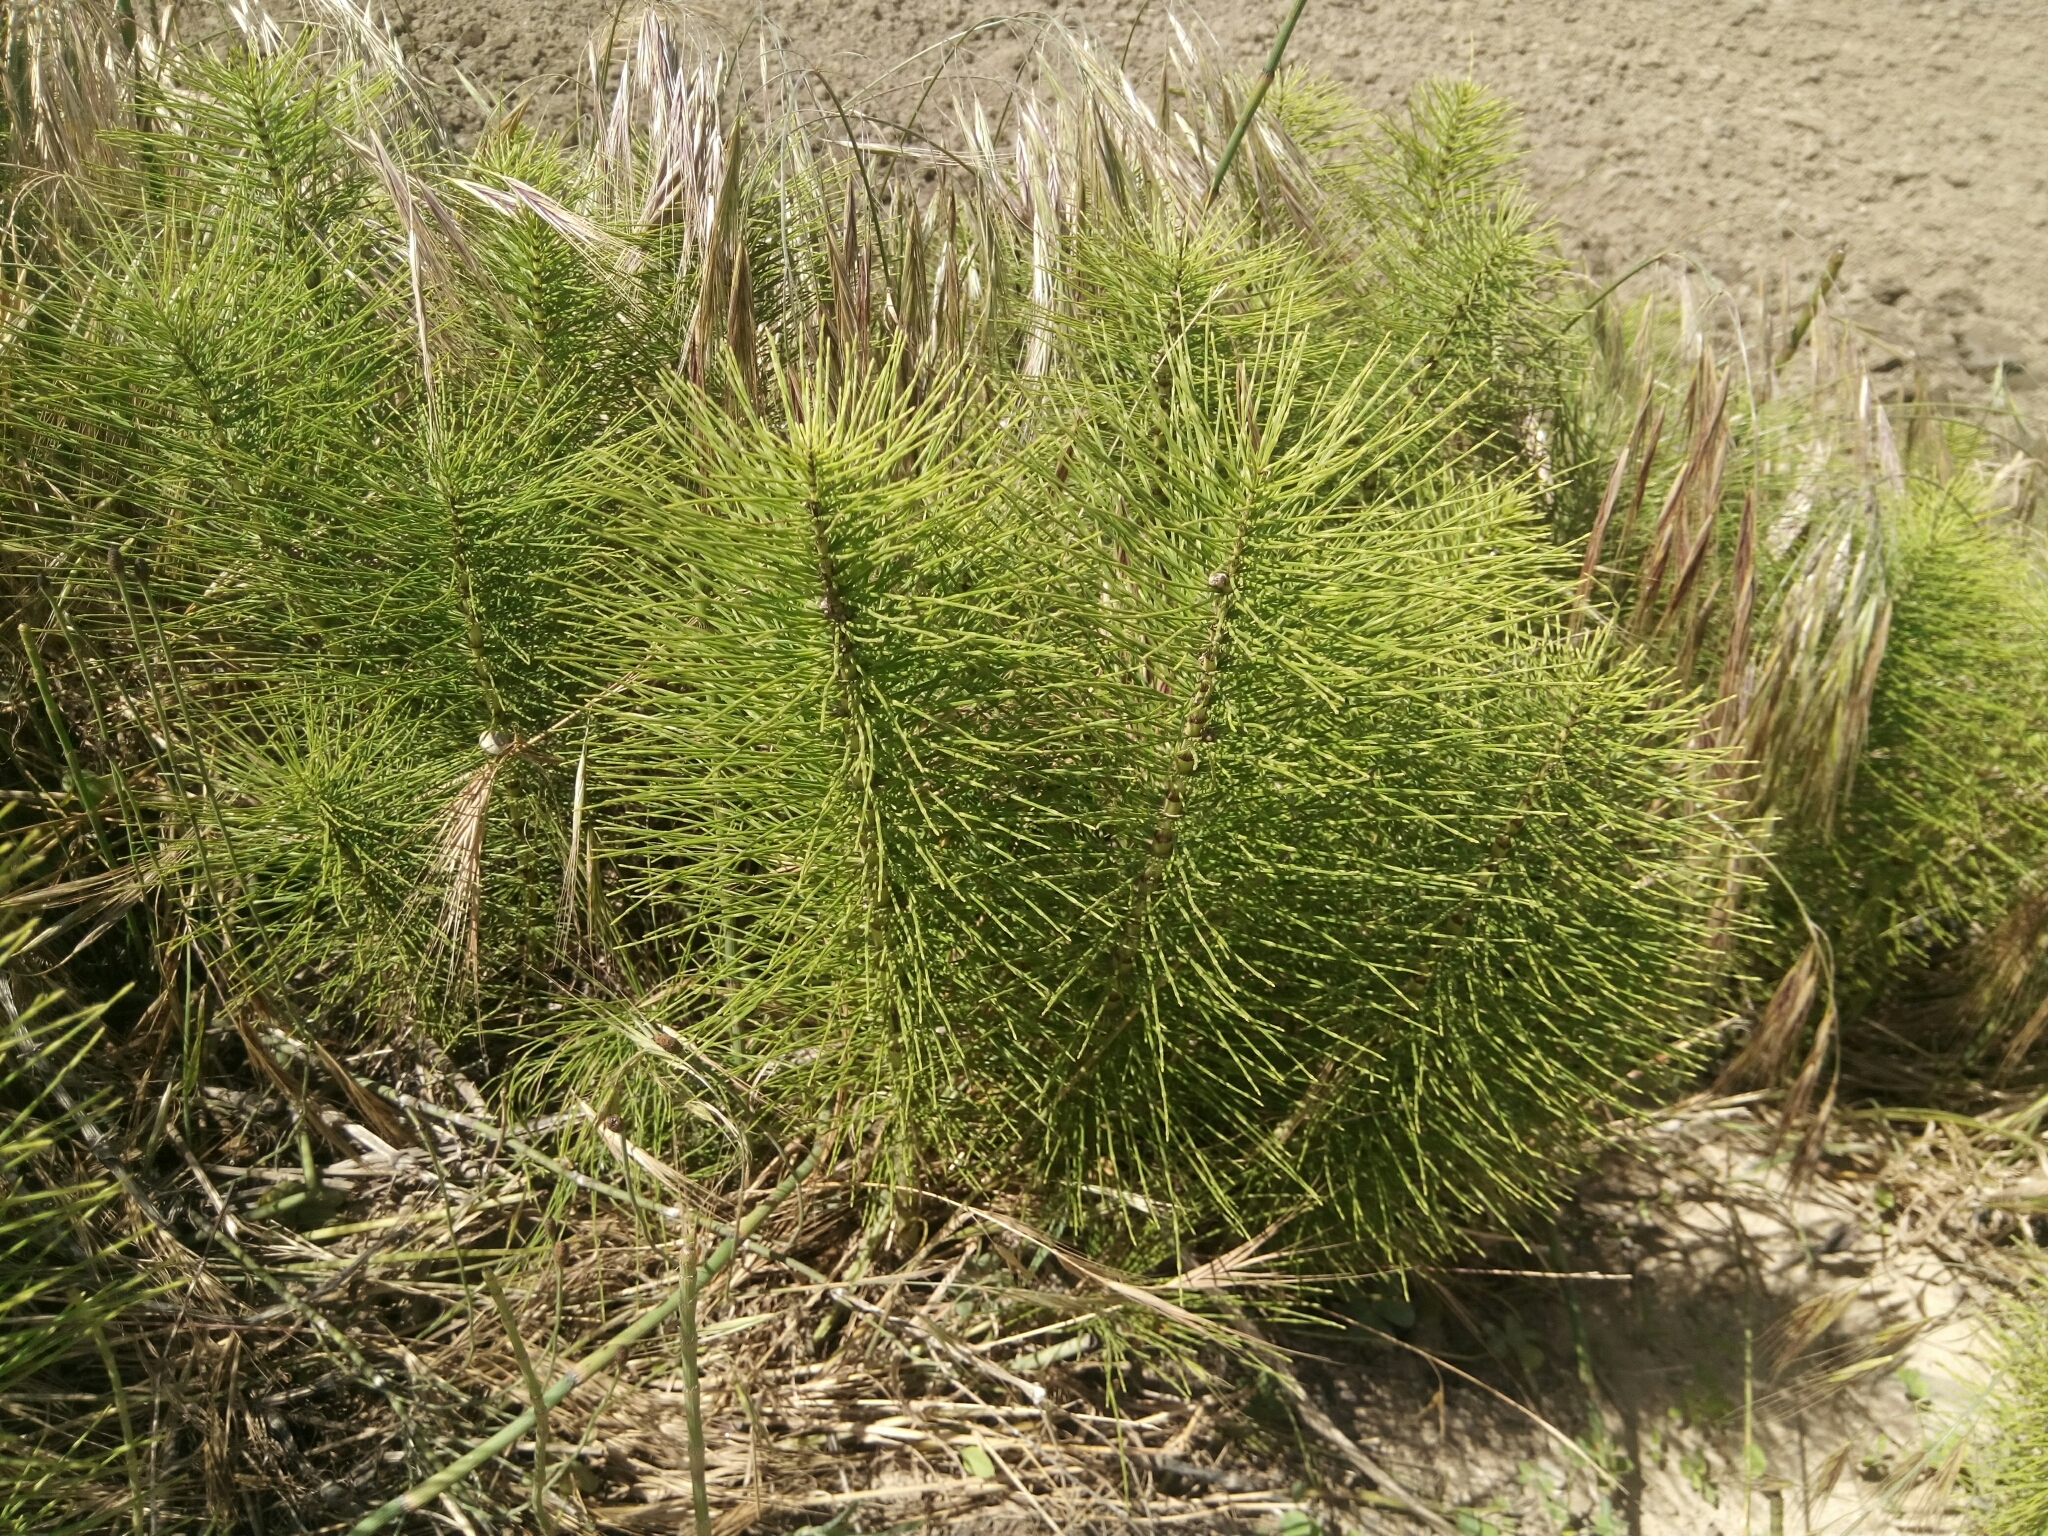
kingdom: Plantae
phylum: Tracheophyta
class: Polypodiopsida
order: Equisetales
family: Equisetaceae
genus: Equisetum
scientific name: Equisetum telmateia
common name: Great horsetail
